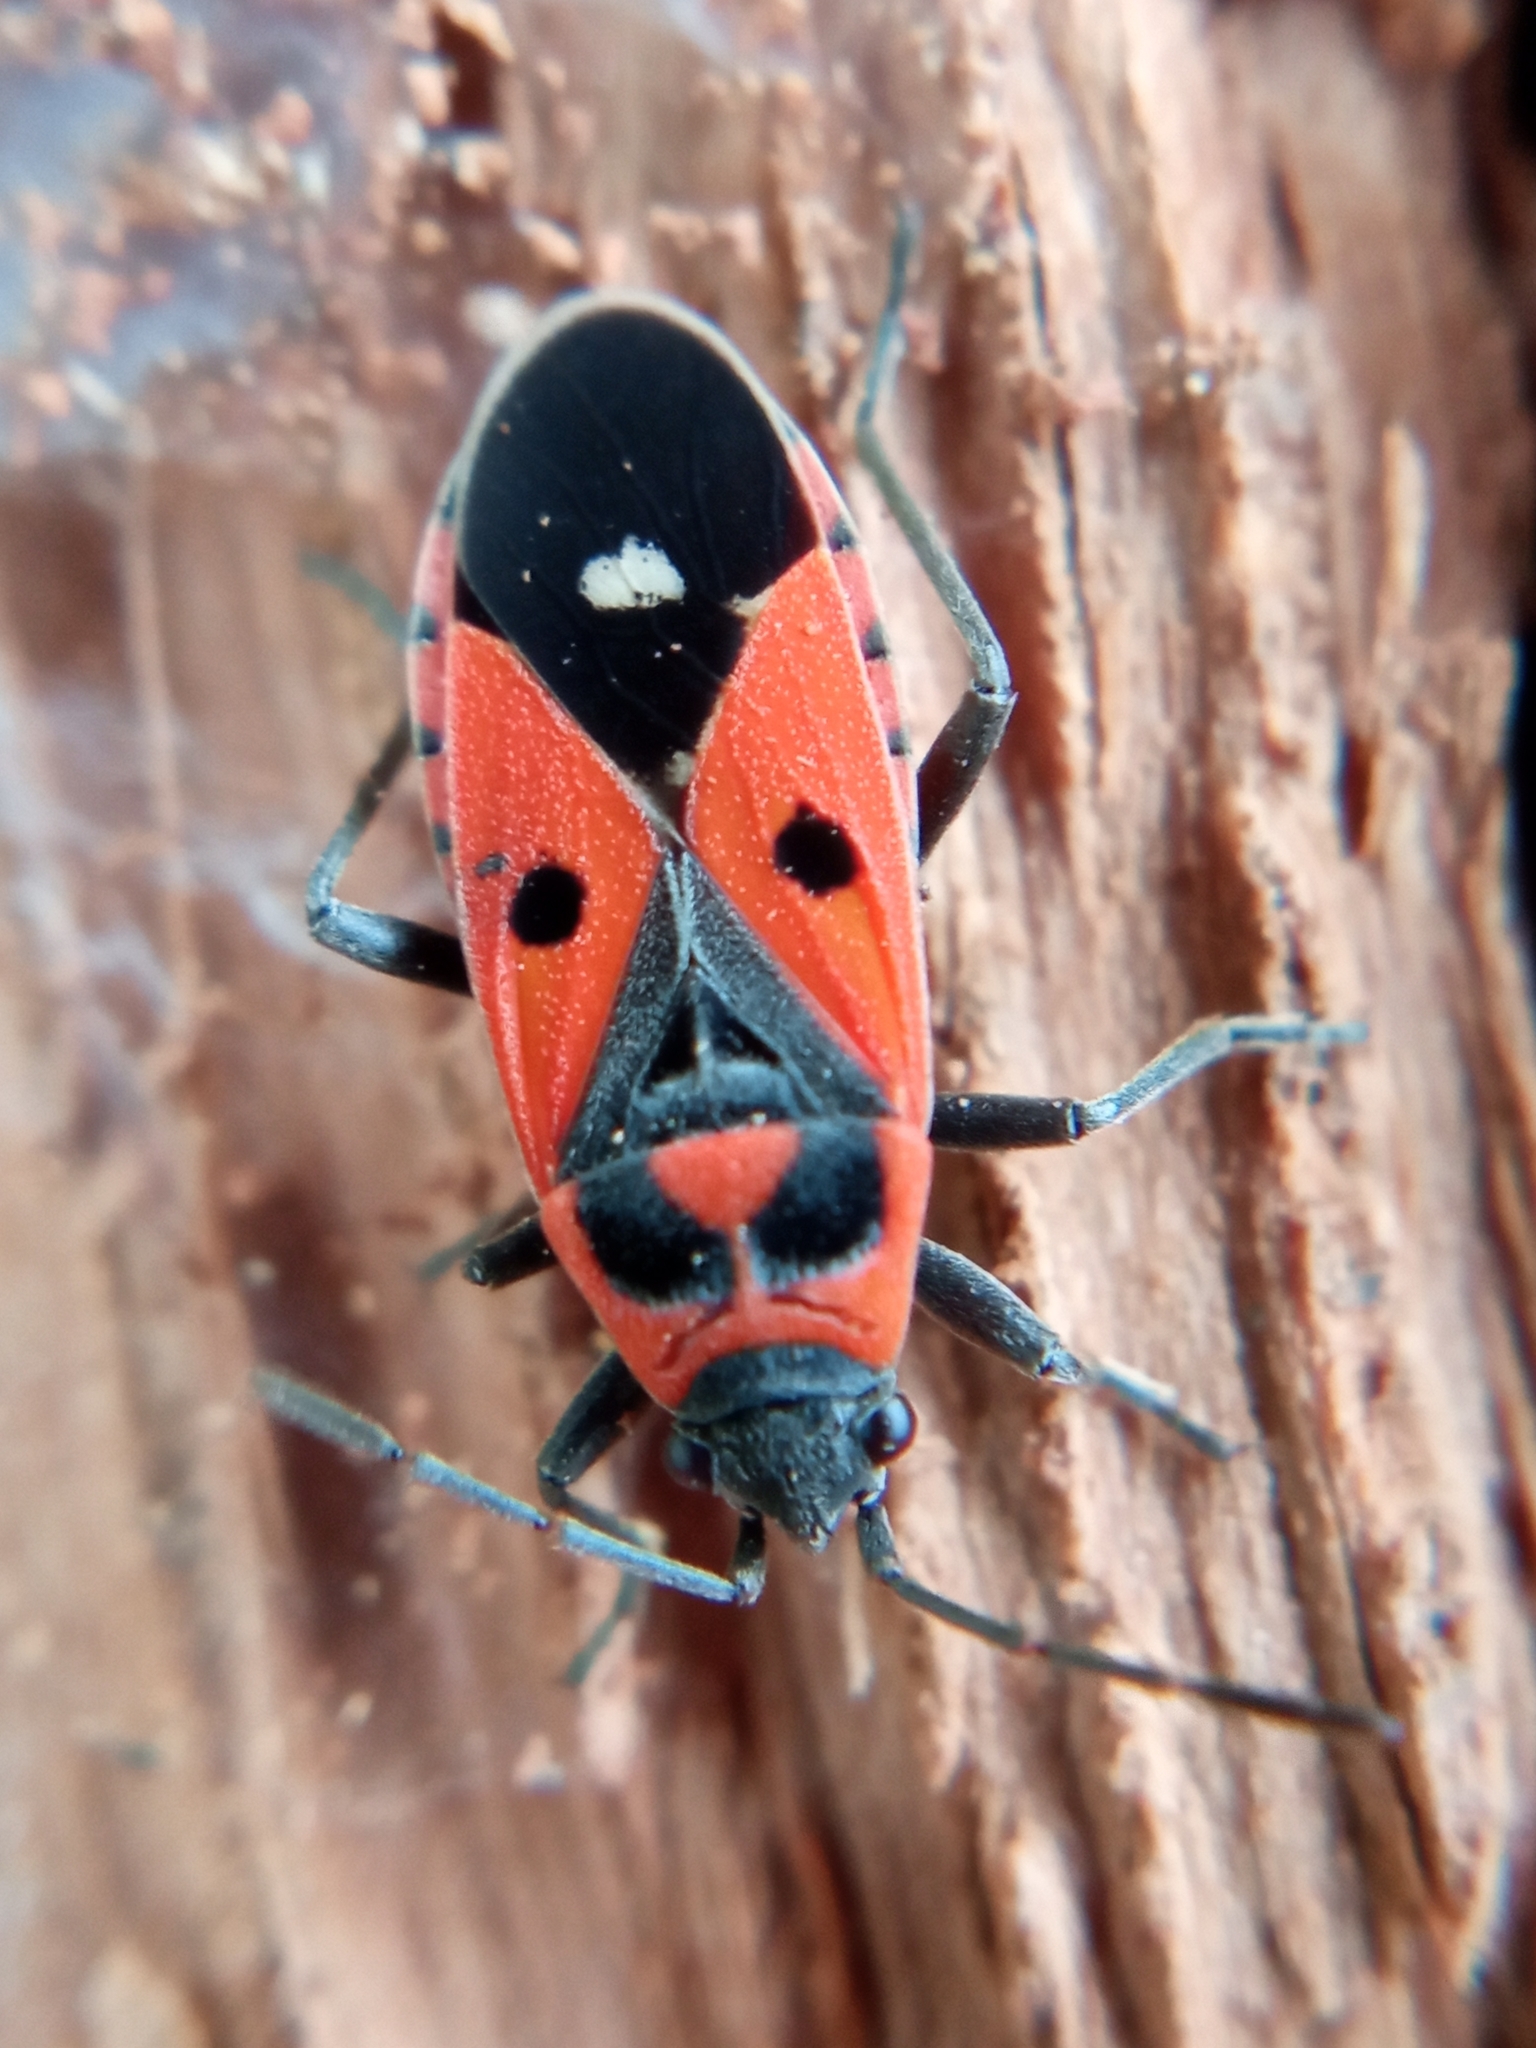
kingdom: Animalia
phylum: Arthropoda
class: Insecta
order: Hemiptera
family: Lygaeidae
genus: Melanocoryphus
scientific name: Melanocoryphus albomaculatus
